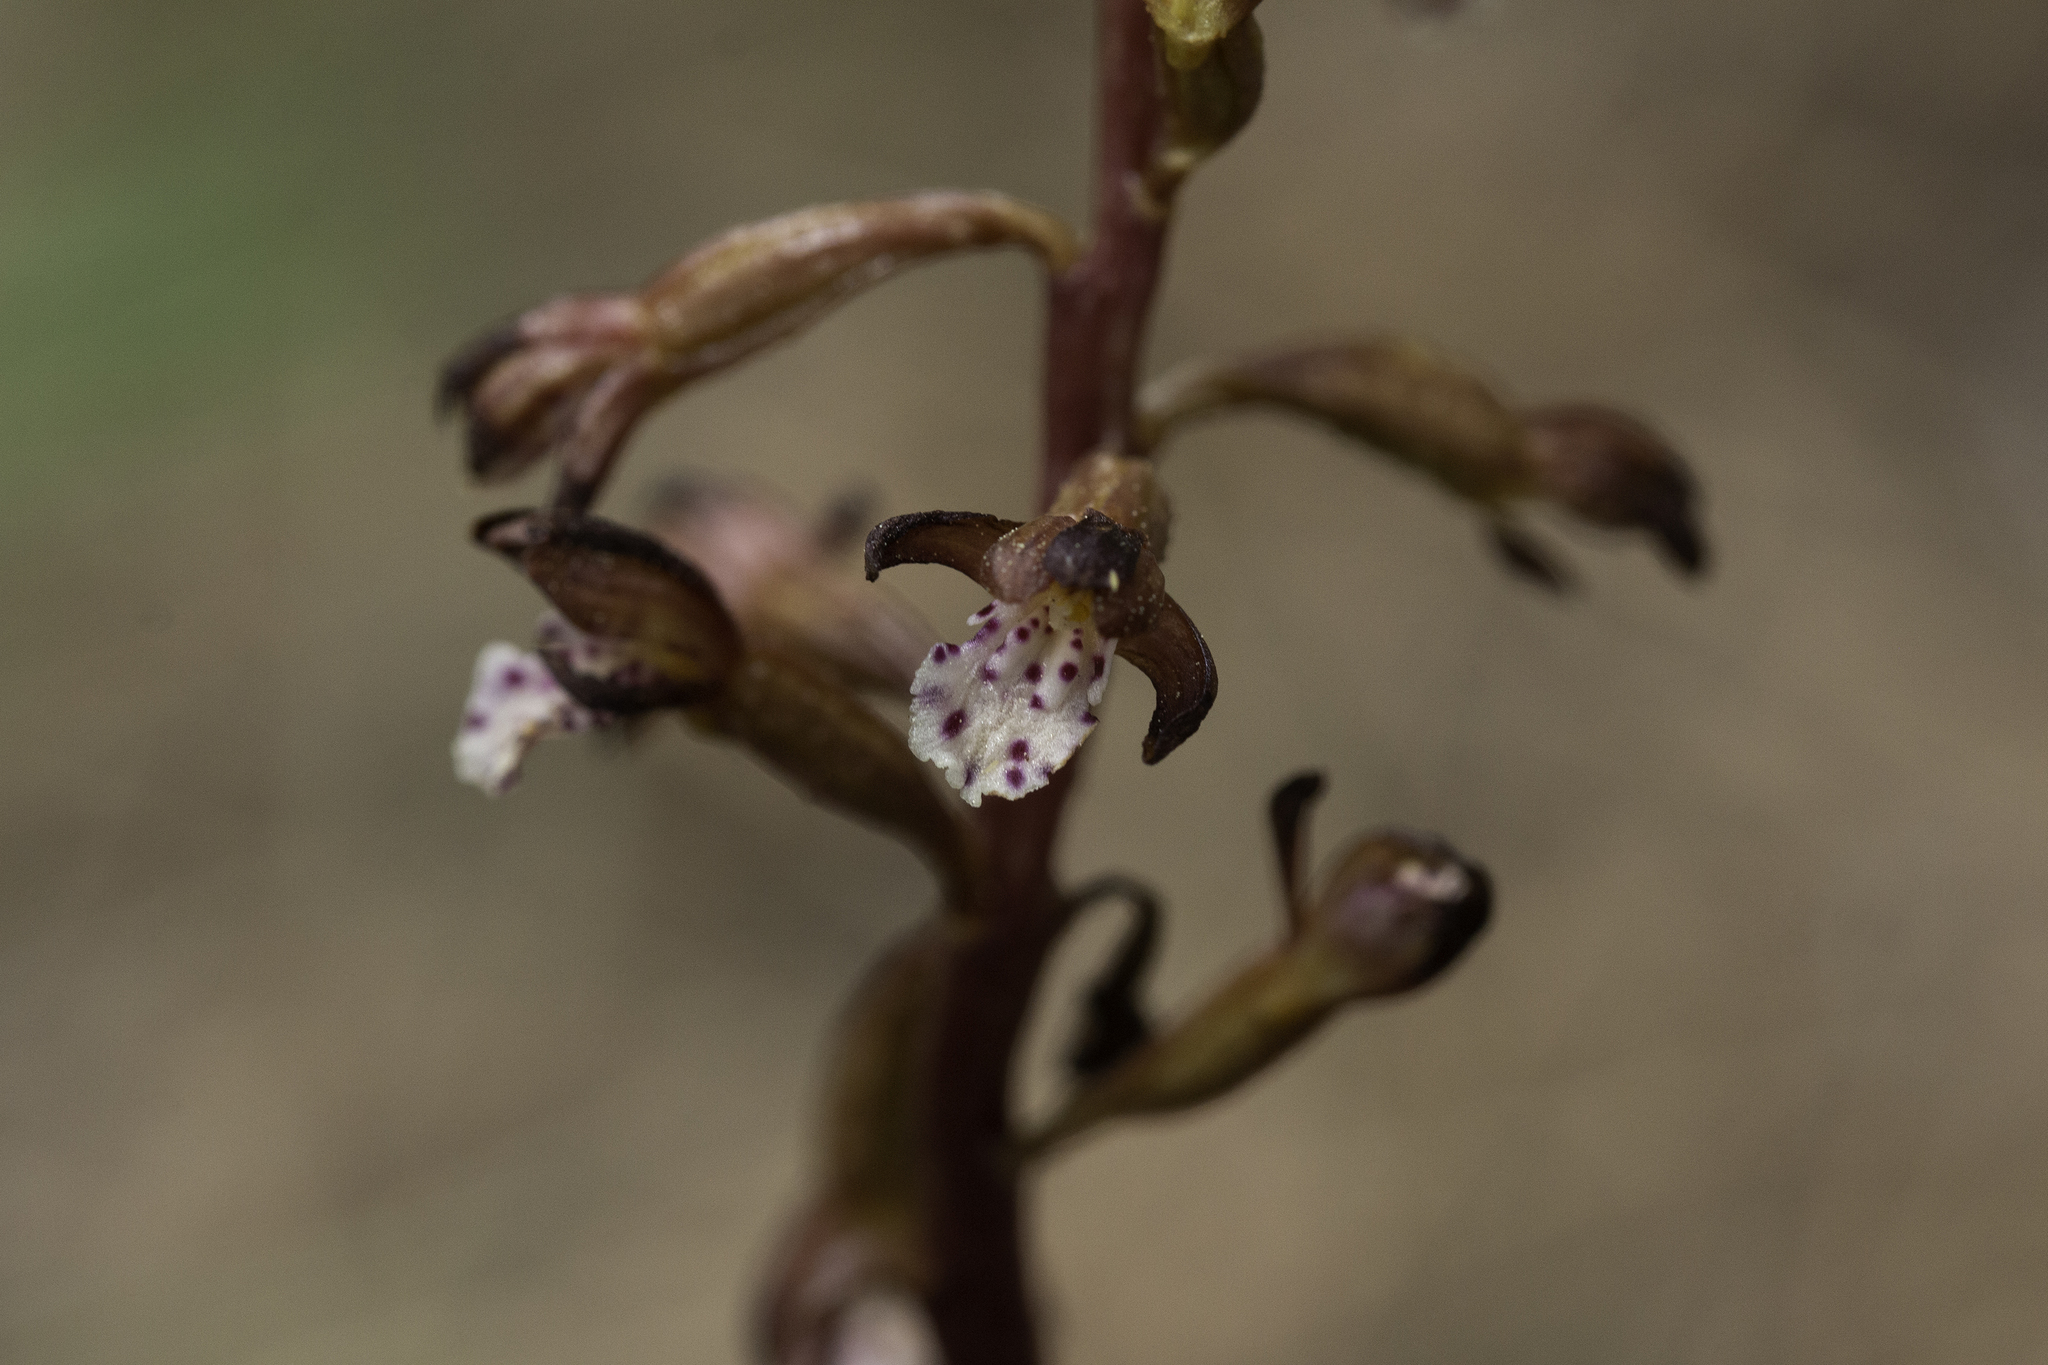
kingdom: Plantae
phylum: Tracheophyta
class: Liliopsida
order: Asparagales
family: Orchidaceae
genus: Corallorhiza
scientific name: Corallorhiza maculata
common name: Spotted coralroot
